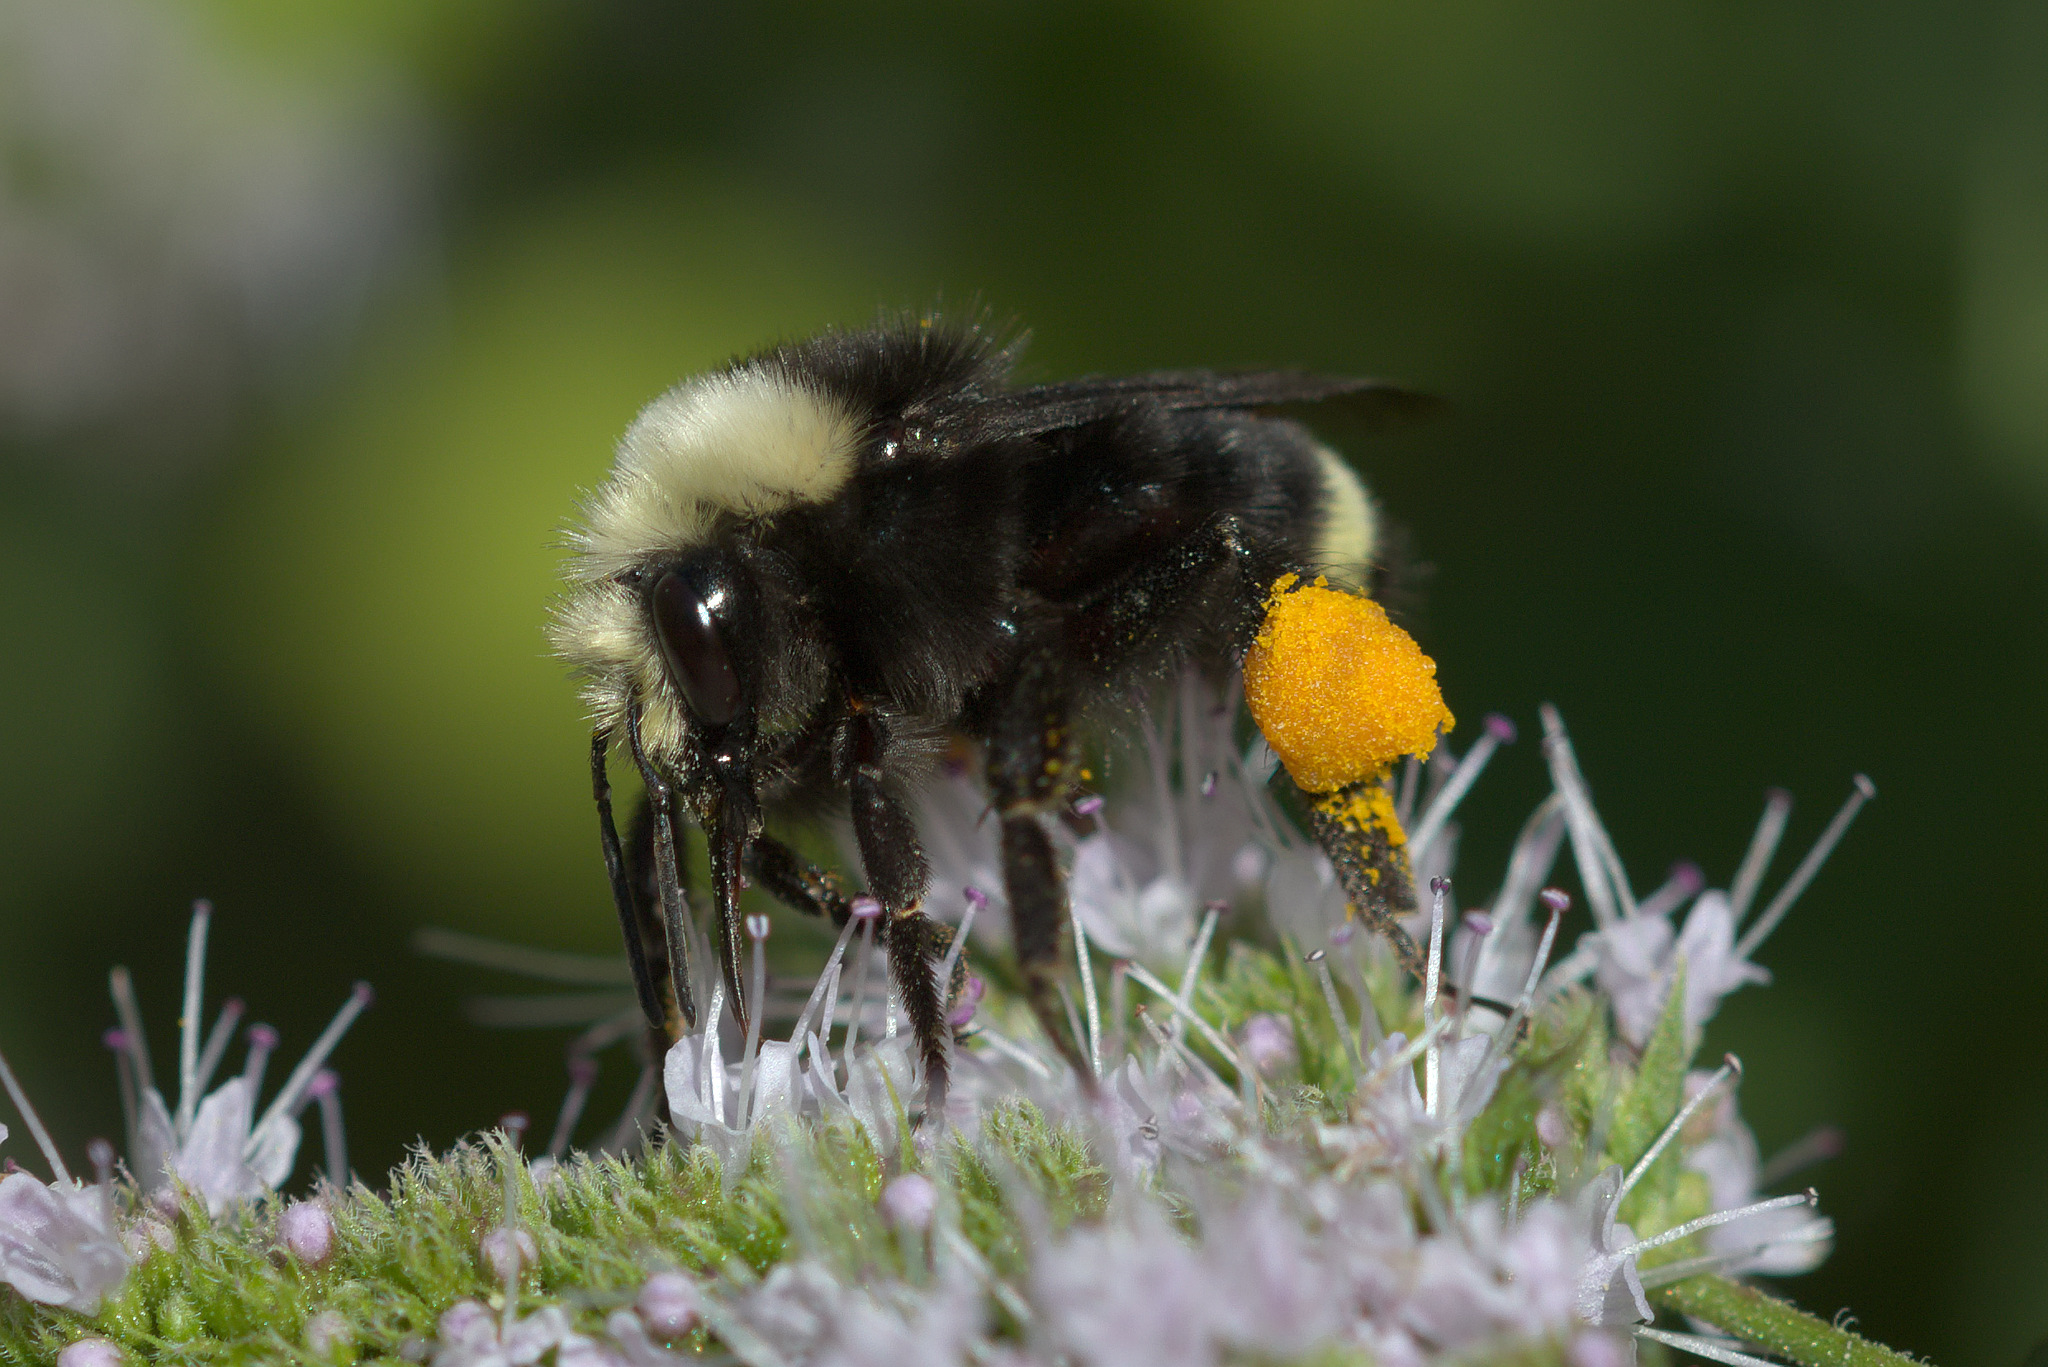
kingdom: Animalia
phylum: Arthropoda
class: Insecta
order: Hymenoptera
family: Apidae
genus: Bombus
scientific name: Bombus vosnesenskii
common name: Vosnesensky bumble bee
